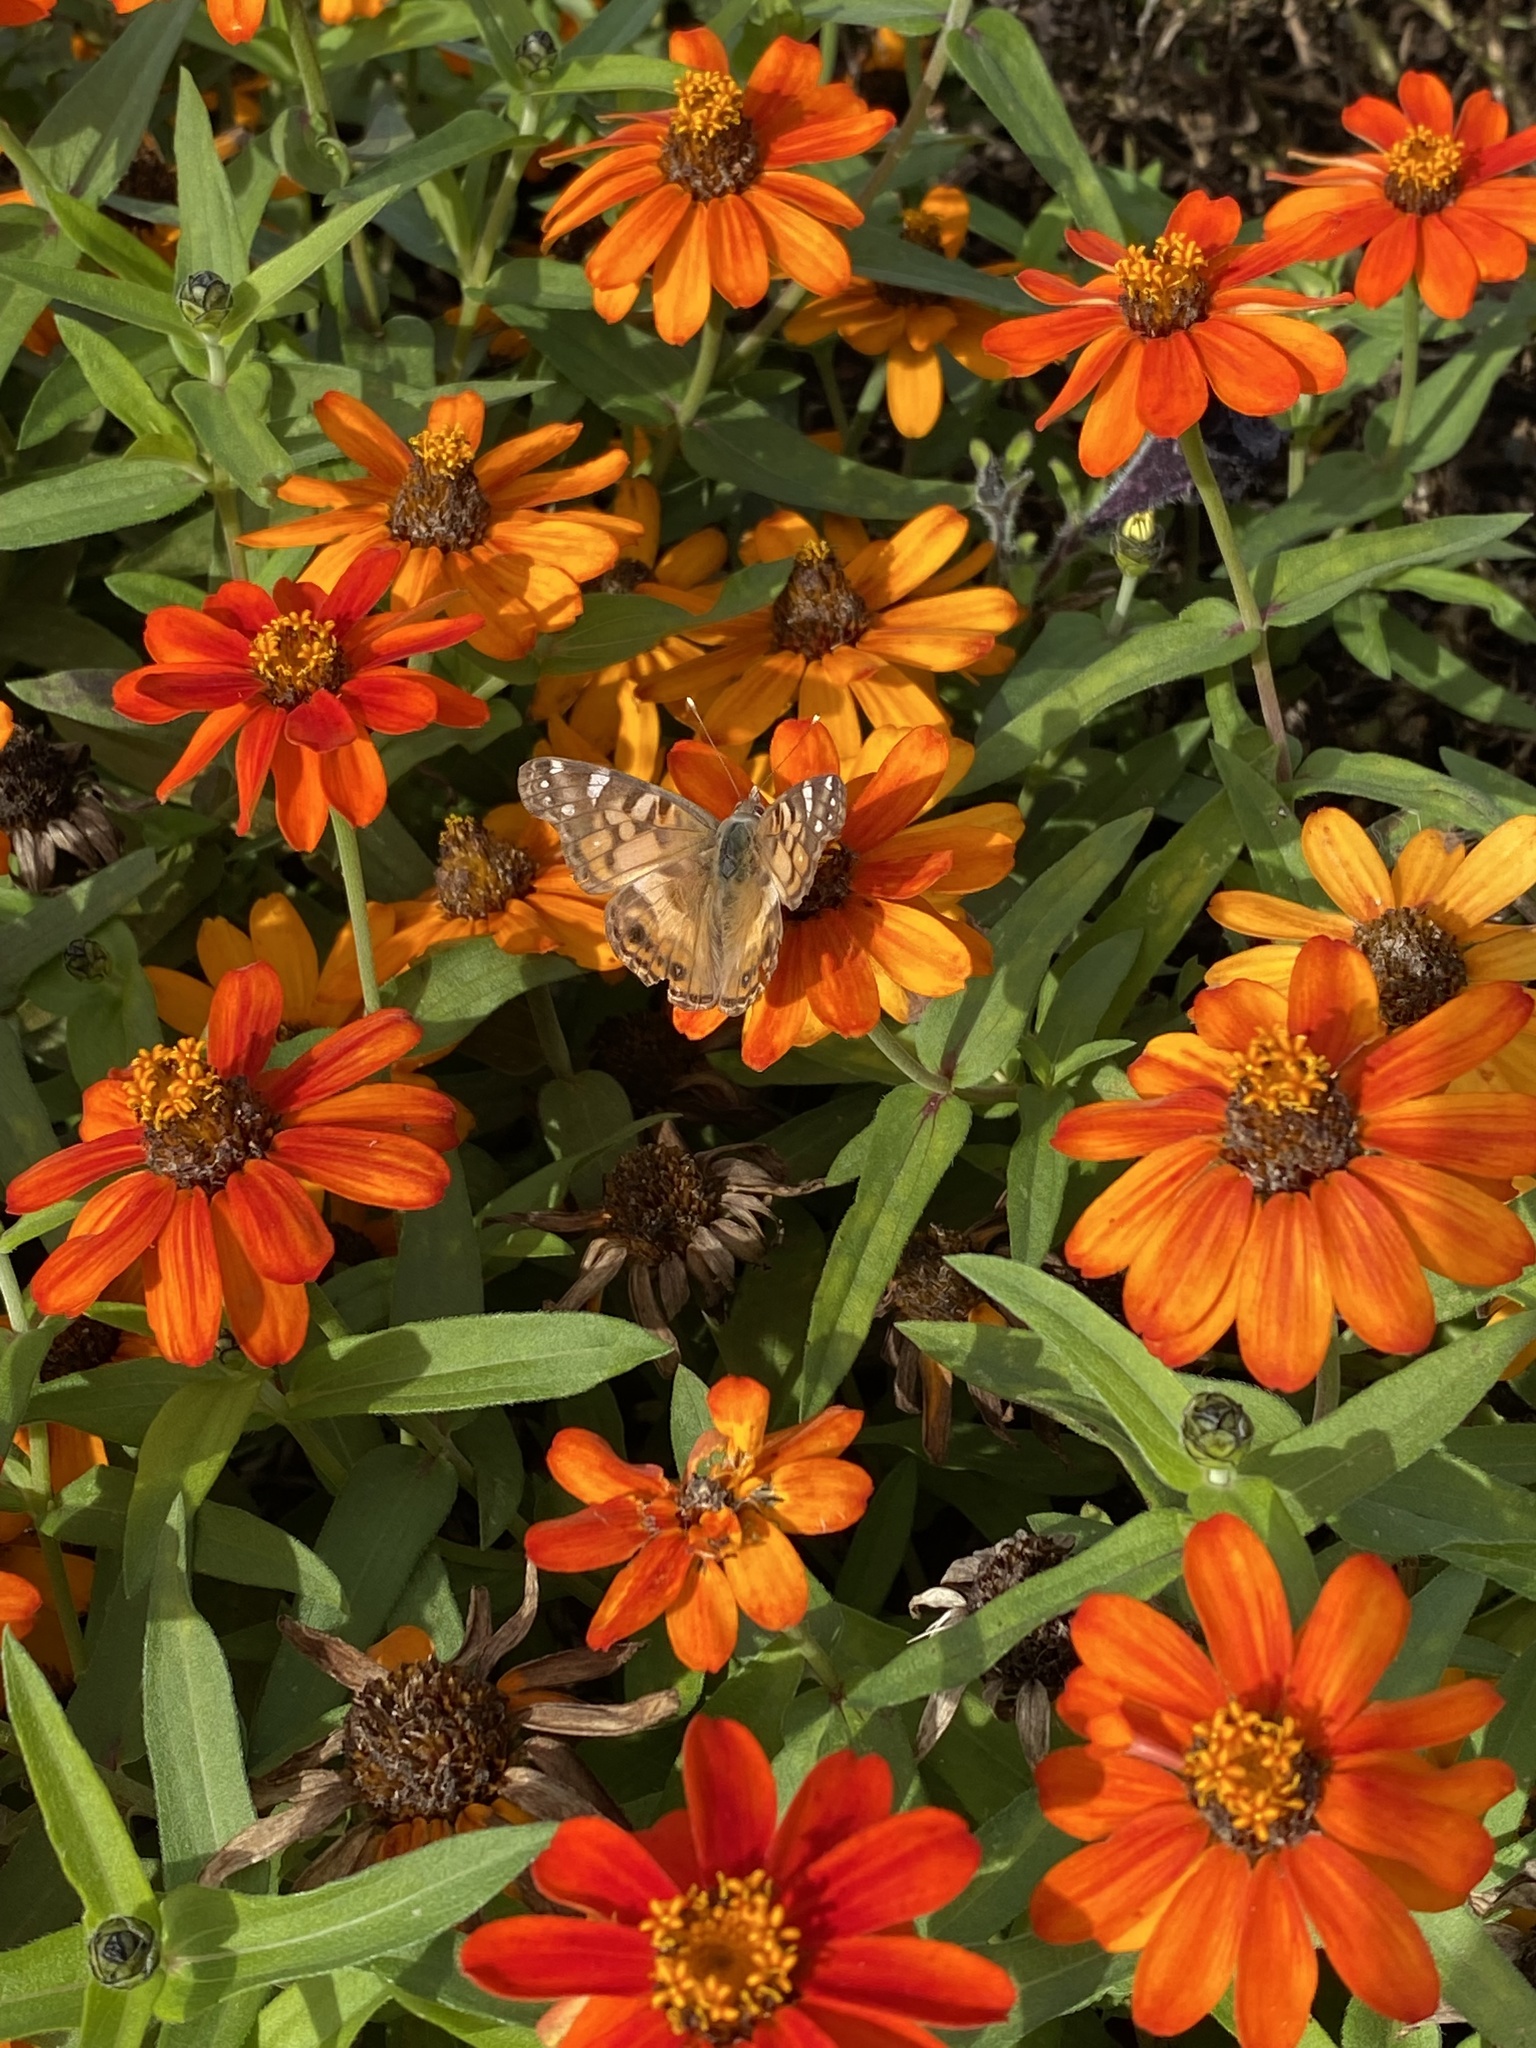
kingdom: Animalia
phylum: Arthropoda
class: Insecta
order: Lepidoptera
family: Nymphalidae
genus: Vanessa
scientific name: Vanessa virginiensis
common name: American lady
